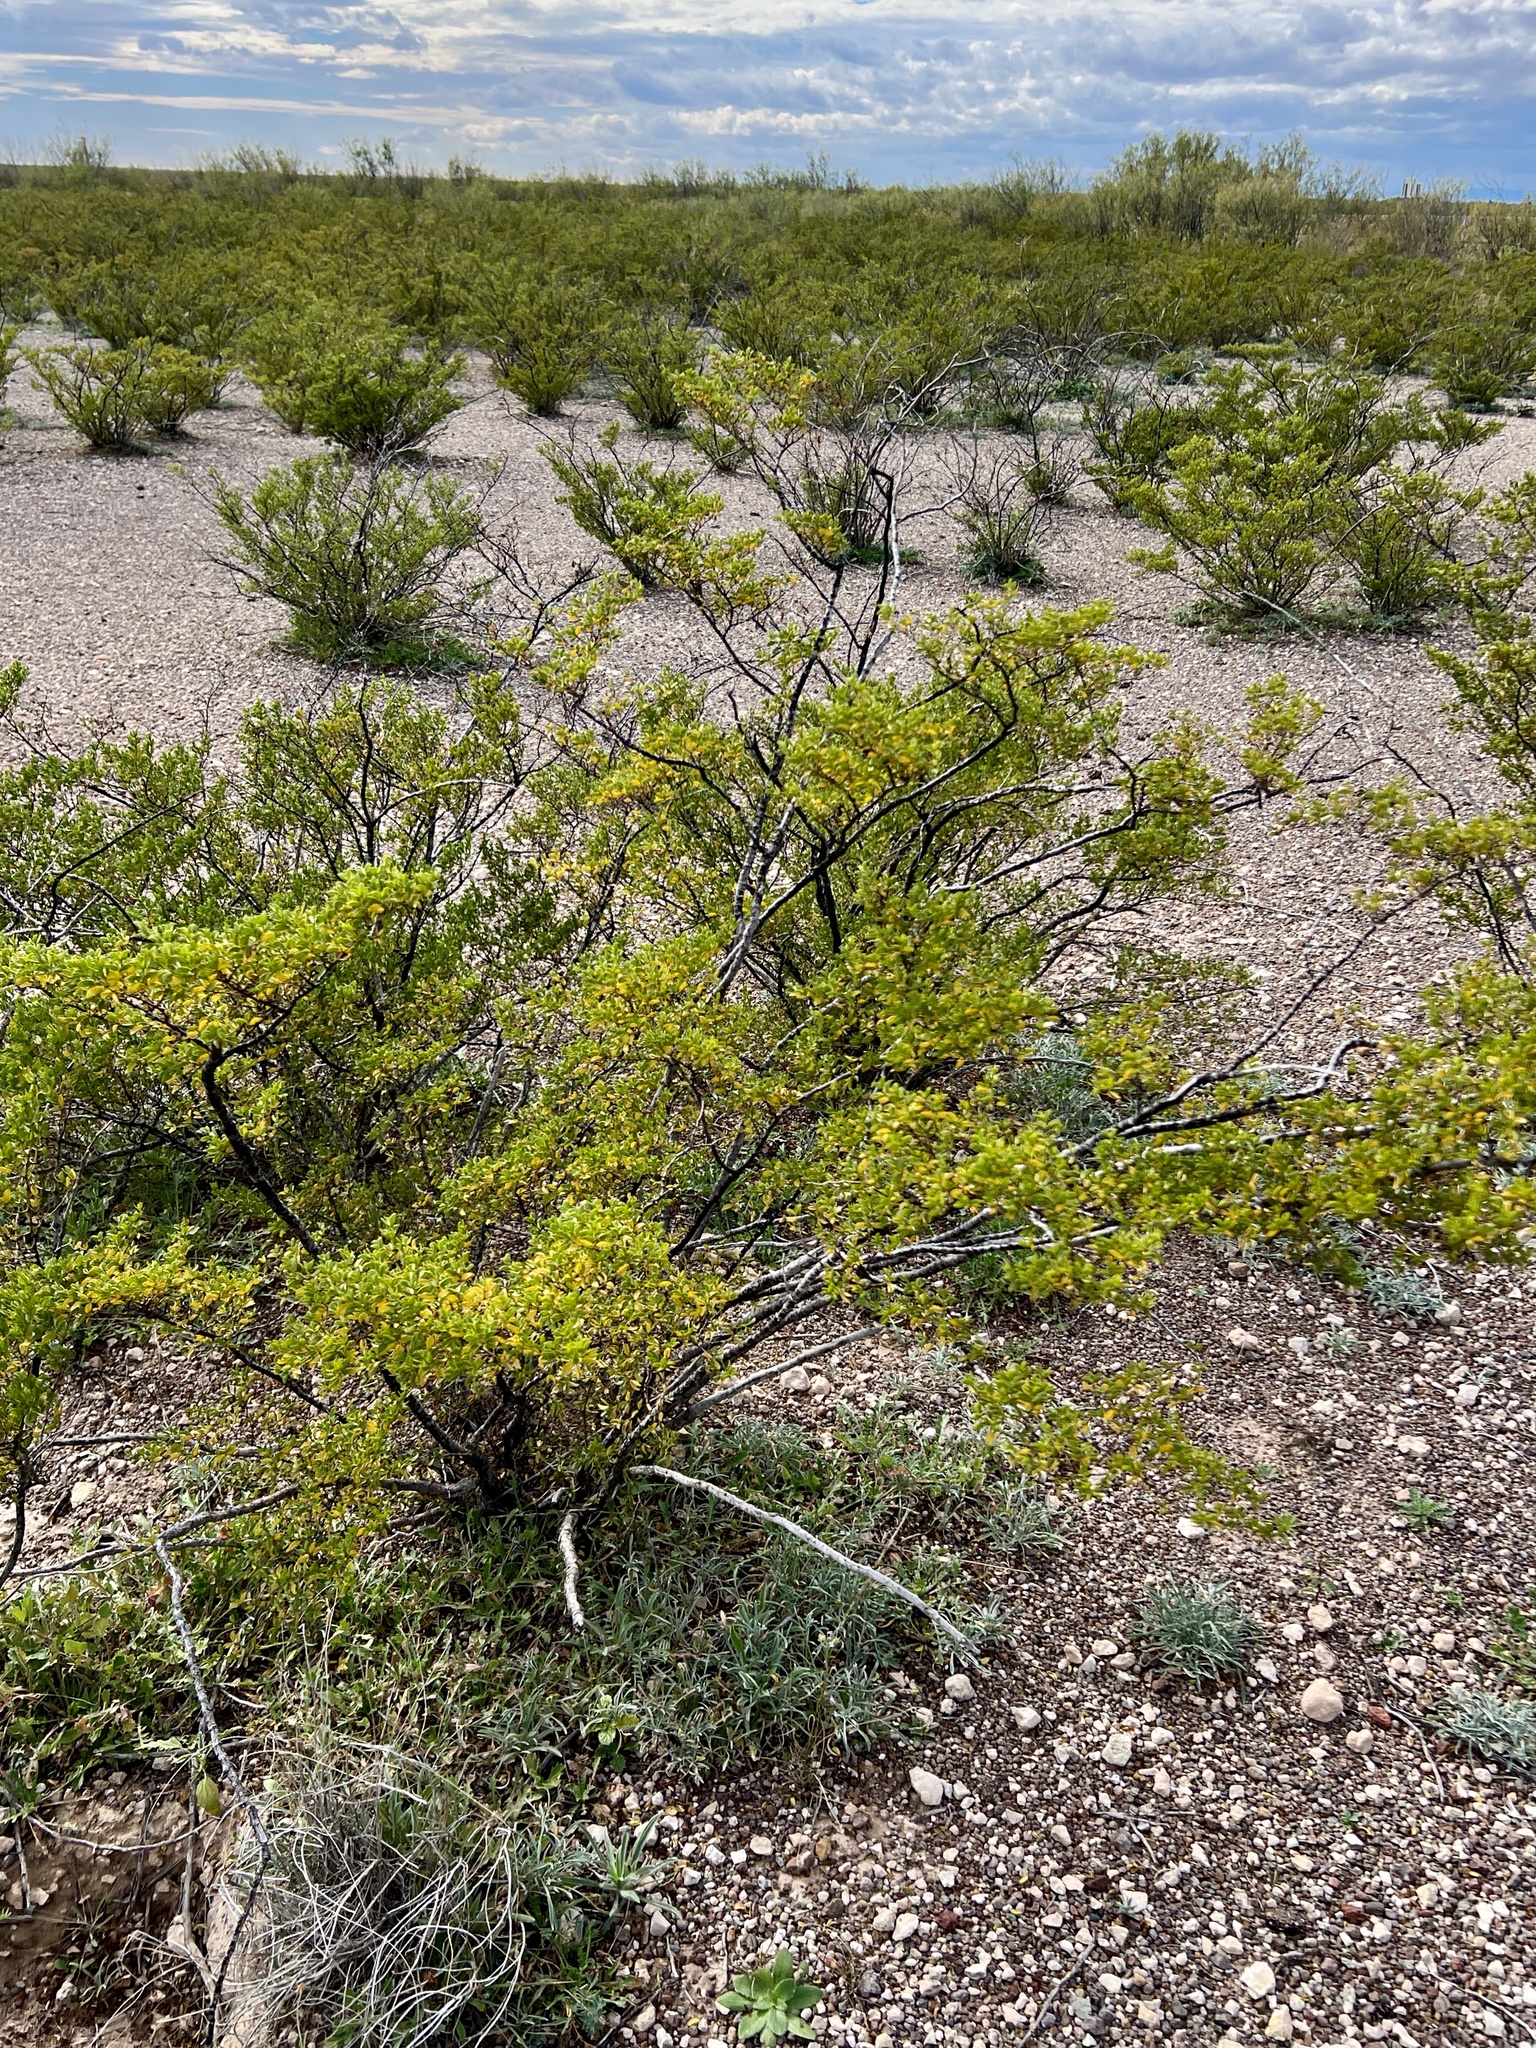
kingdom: Plantae
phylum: Tracheophyta
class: Magnoliopsida
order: Zygophyllales
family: Zygophyllaceae
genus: Larrea
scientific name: Larrea tridentata
